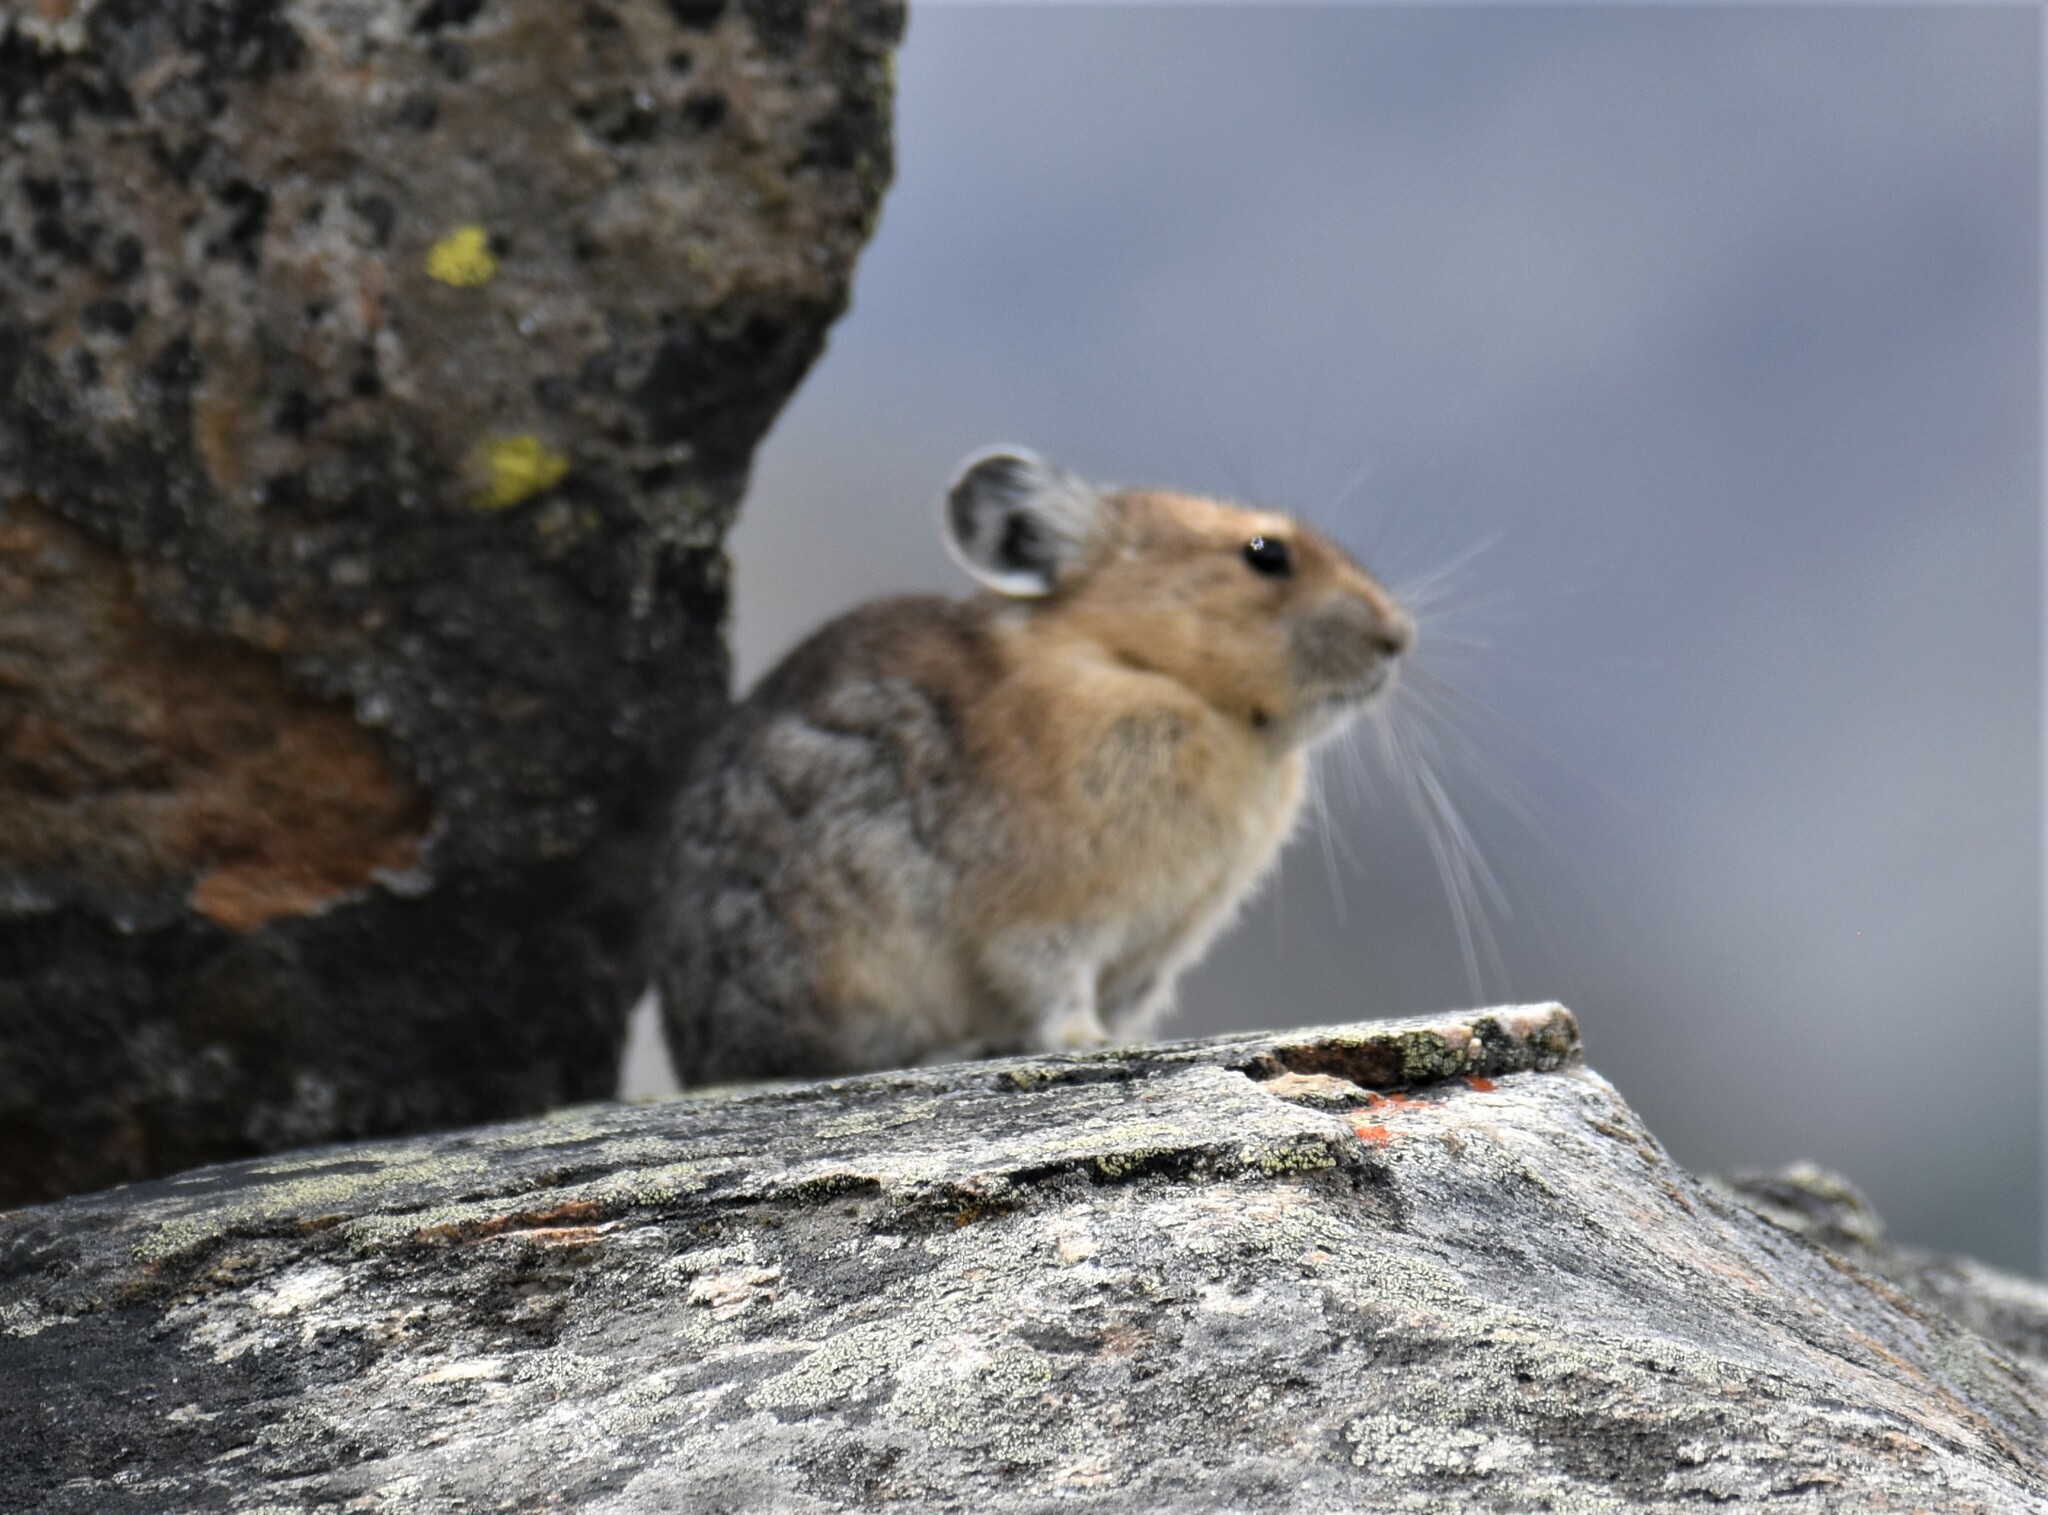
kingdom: Animalia
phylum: Chordata
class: Mammalia
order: Lagomorpha
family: Ochotonidae
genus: Ochotona
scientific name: Ochotona princeps
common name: American pika
